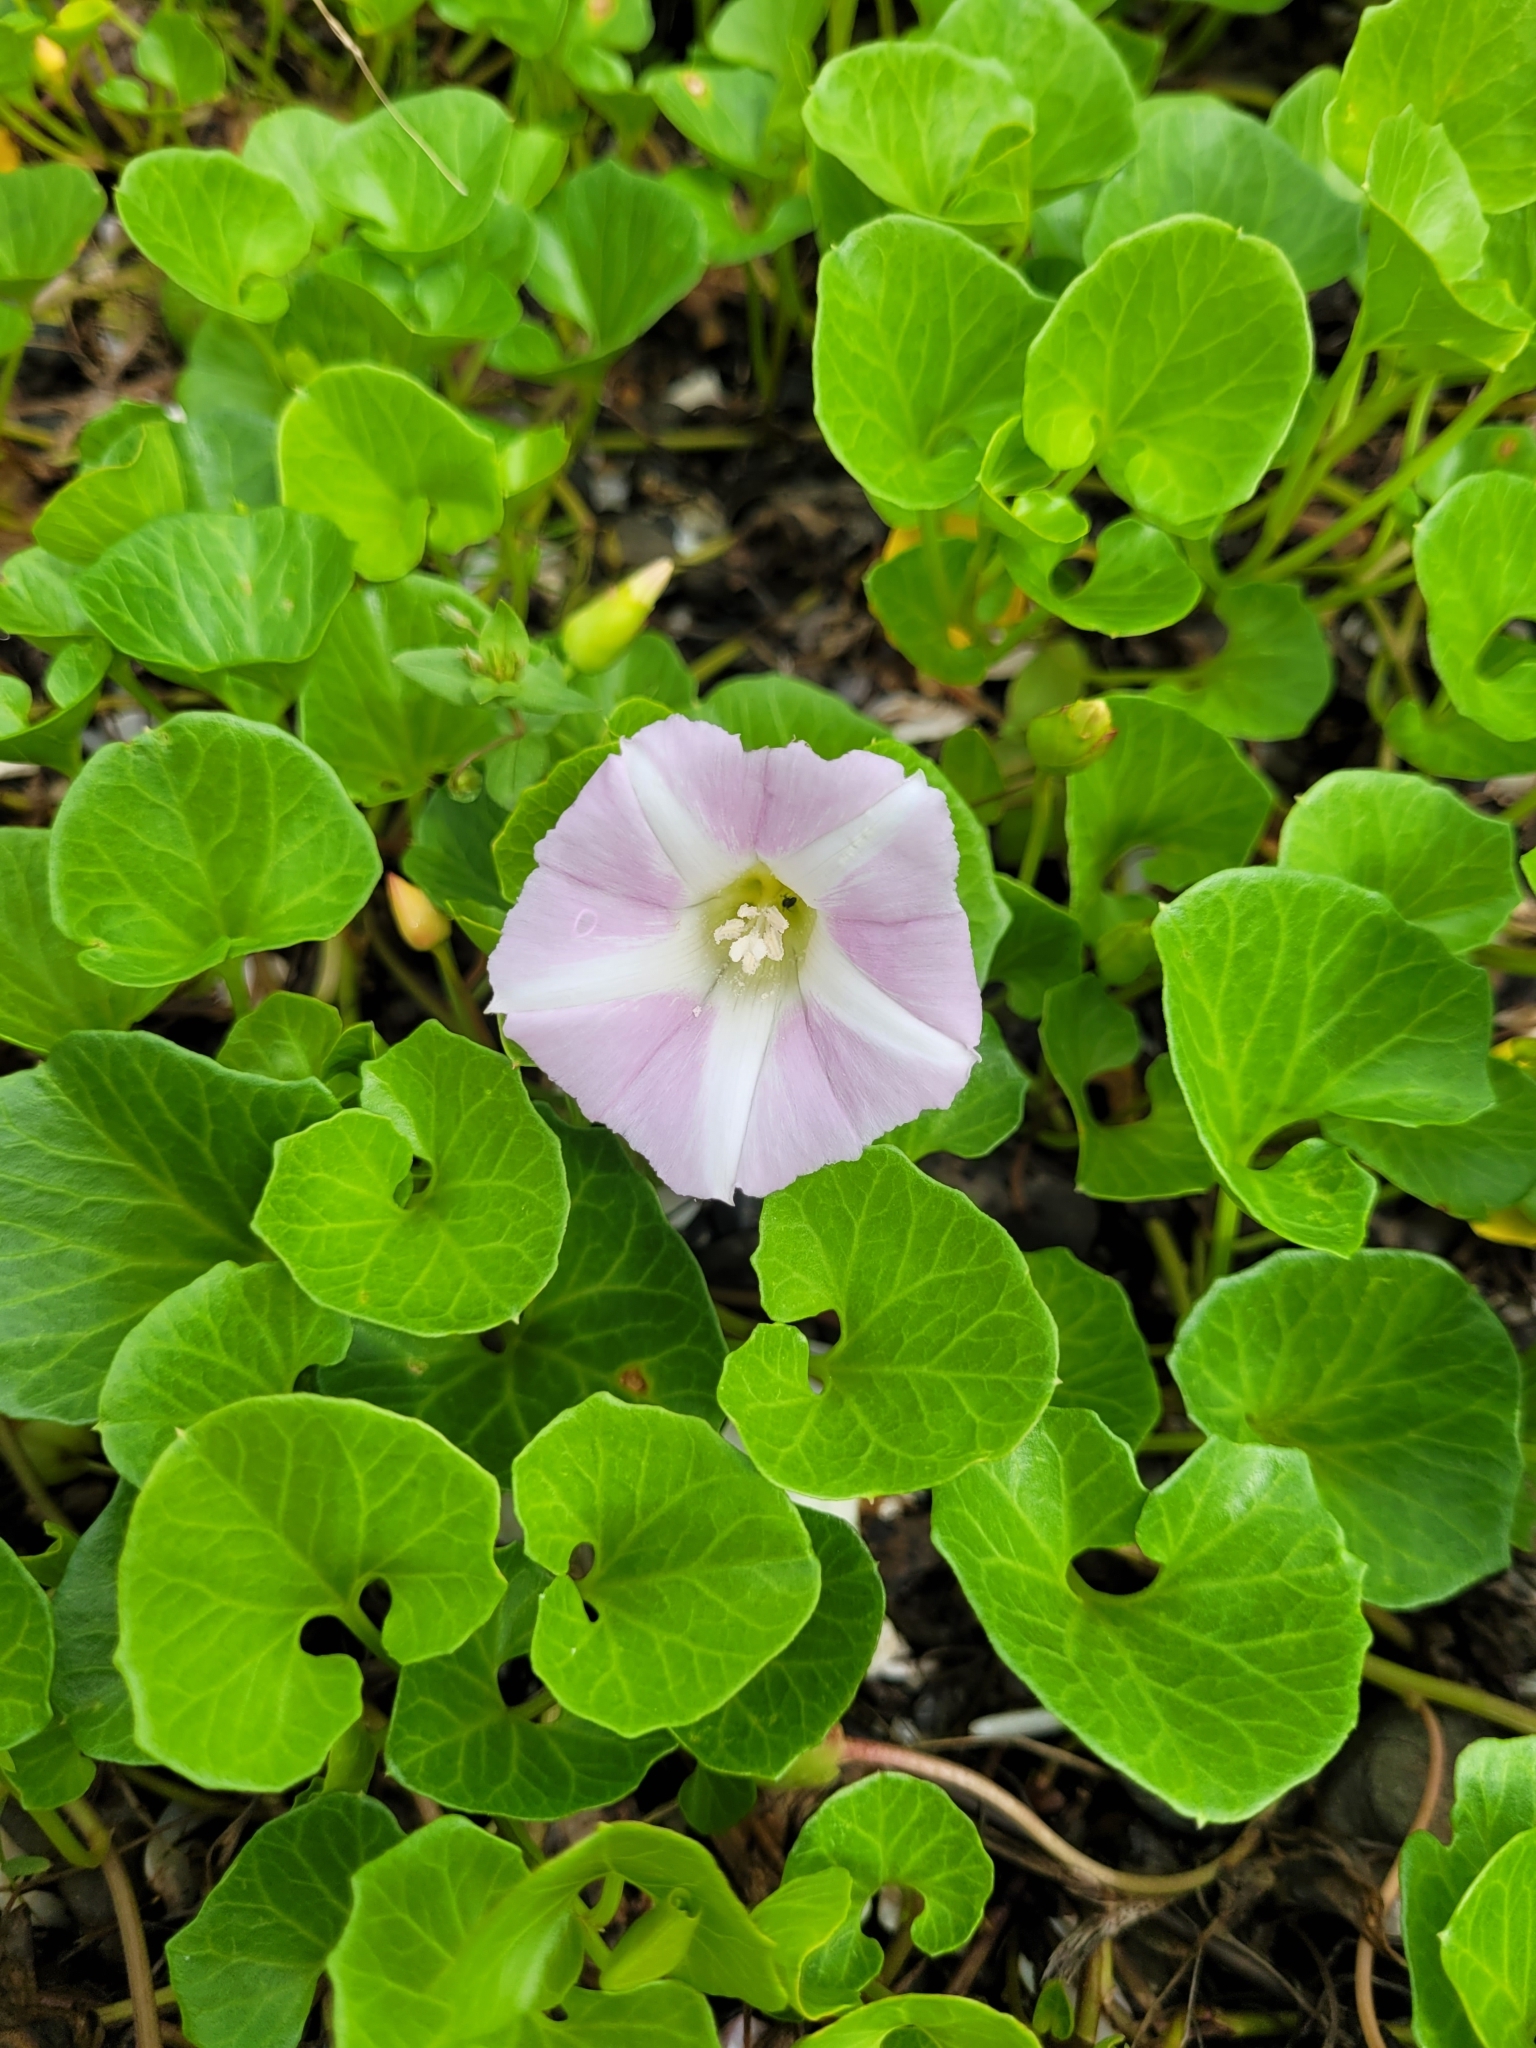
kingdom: Plantae
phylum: Tracheophyta
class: Magnoliopsida
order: Solanales
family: Convolvulaceae
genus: Calystegia
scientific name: Calystegia soldanella
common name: Sea bindweed
